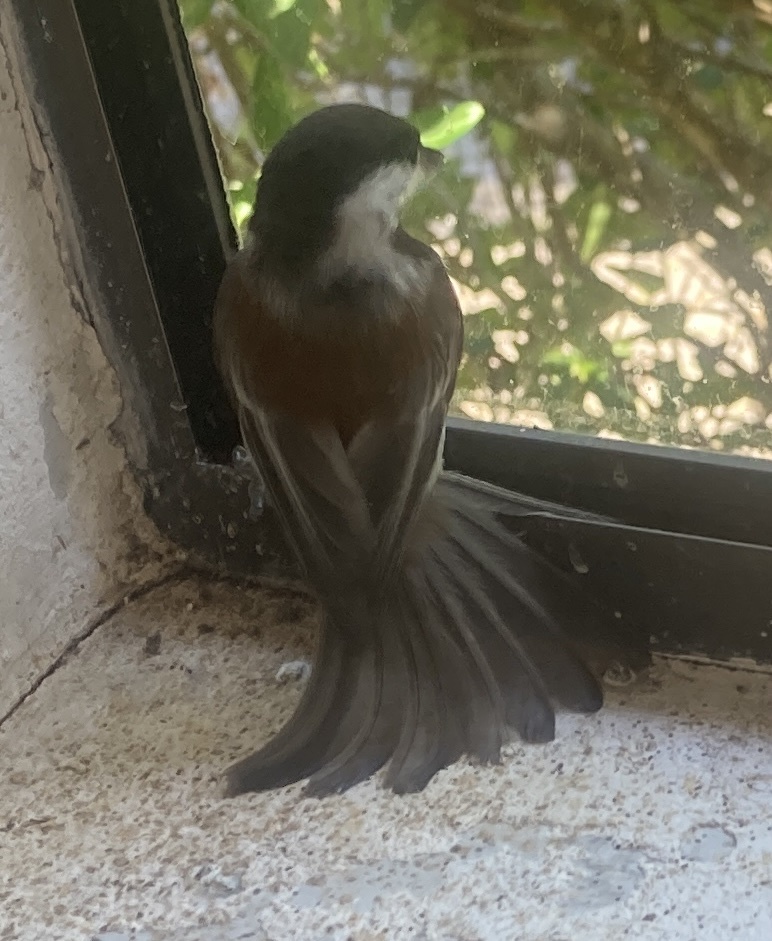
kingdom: Animalia
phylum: Chordata
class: Aves
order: Passeriformes
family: Paridae
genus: Poecile
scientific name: Poecile rufescens
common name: Chestnut-backed chickadee
